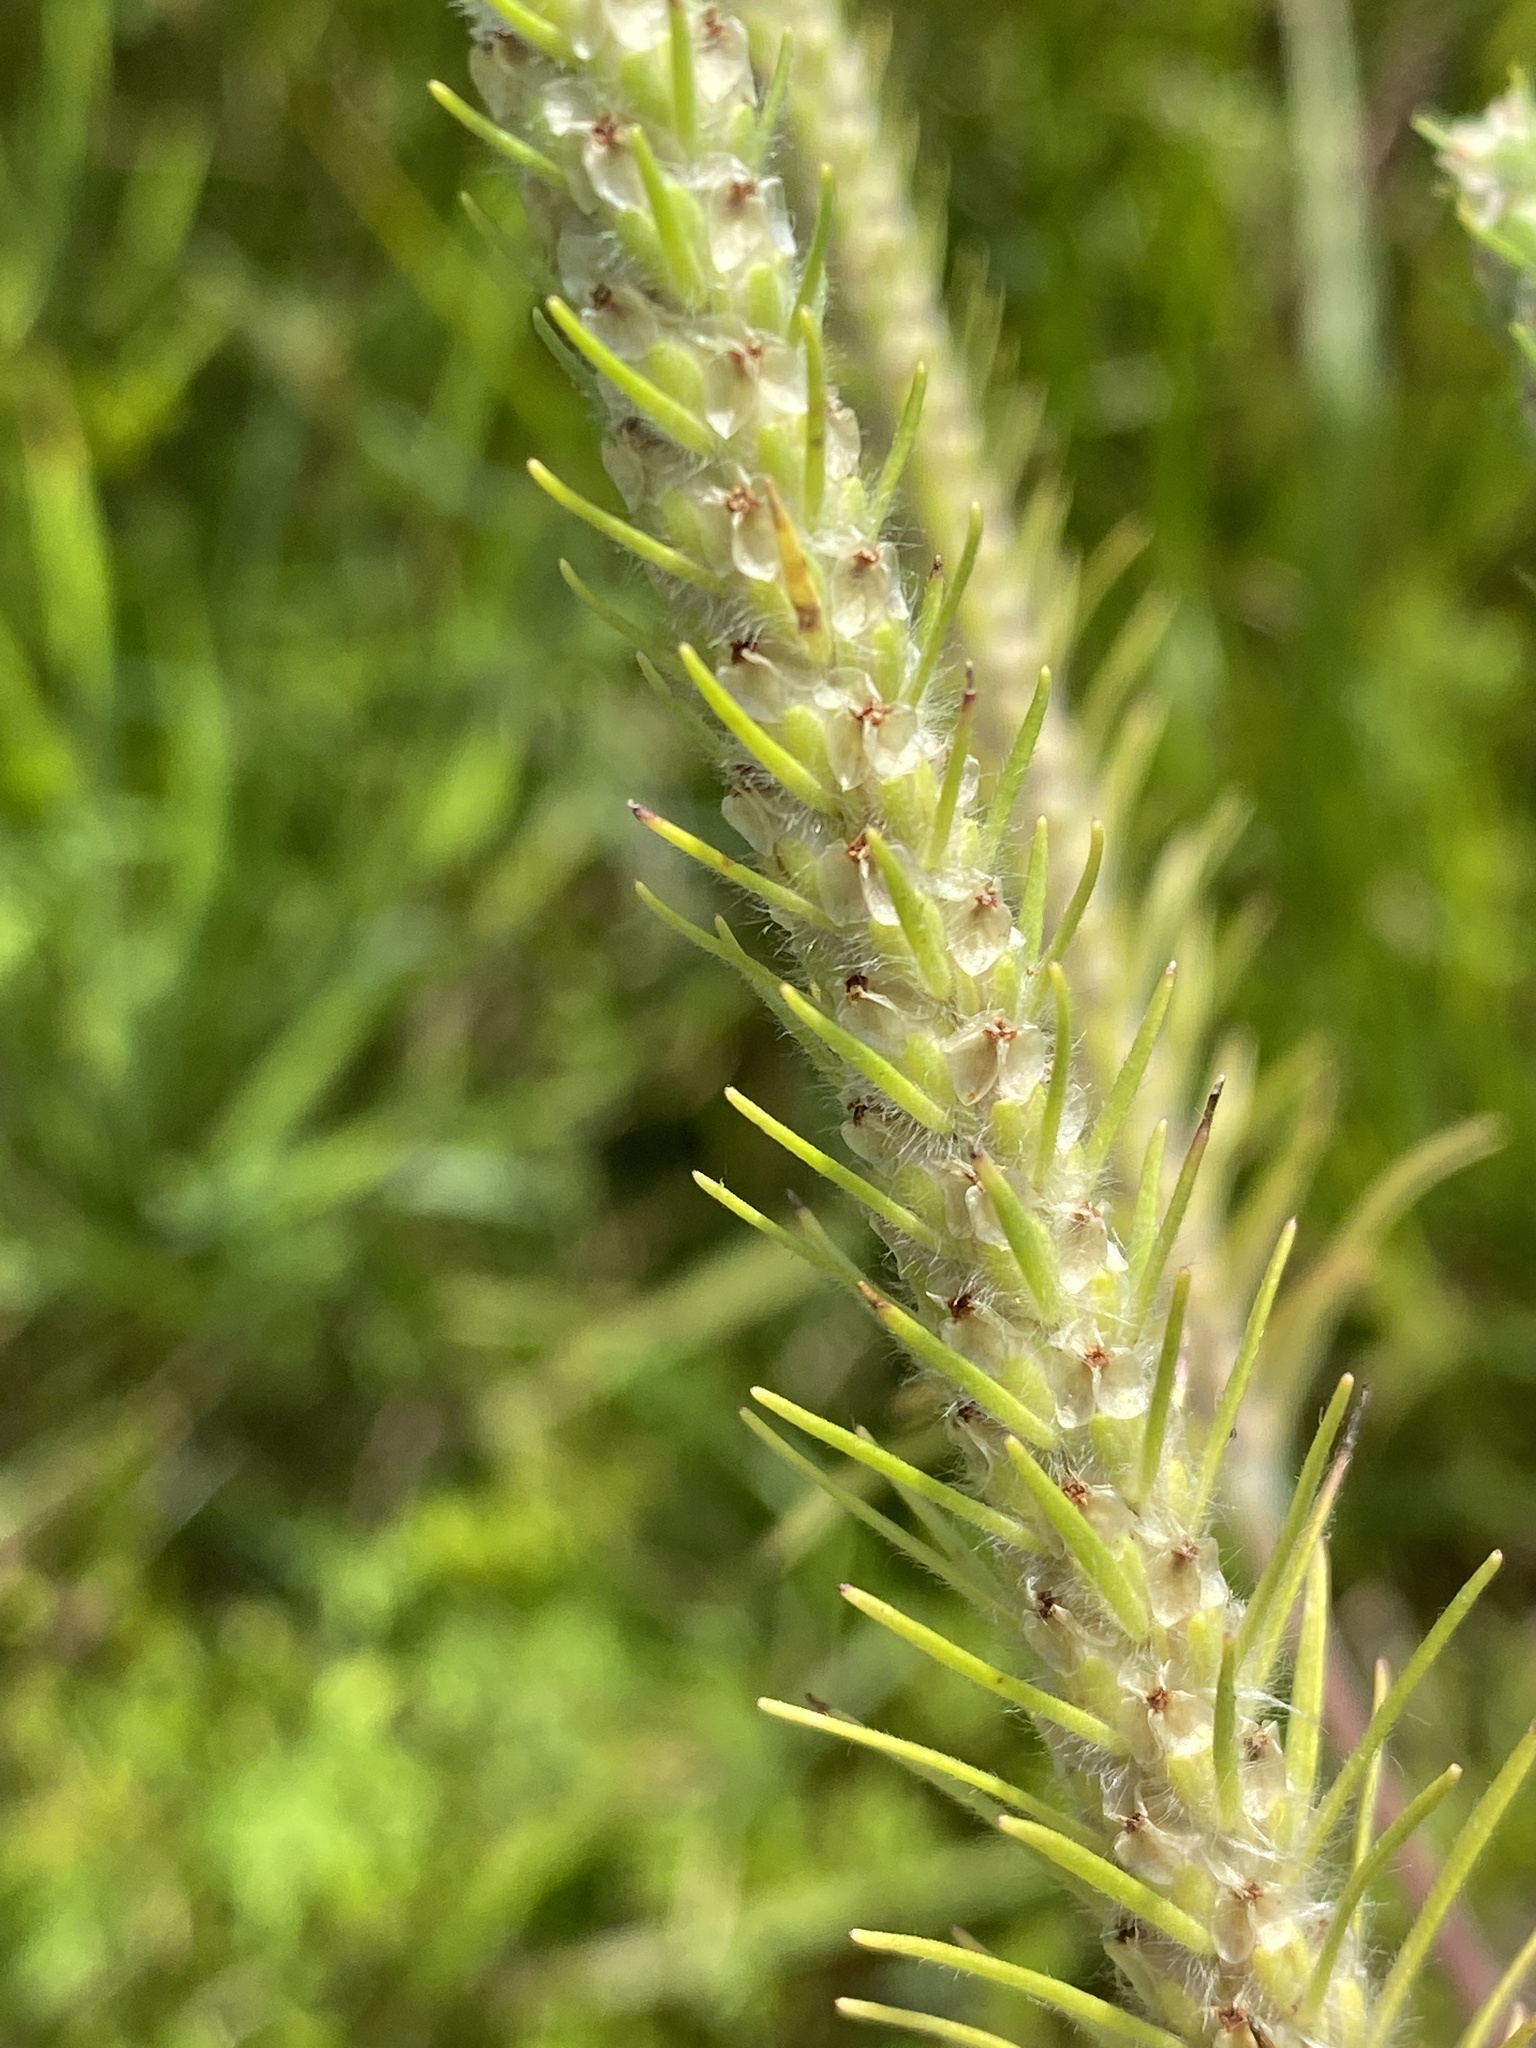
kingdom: Plantae
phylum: Tracheophyta
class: Magnoliopsida
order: Lamiales
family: Plantaginaceae
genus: Plantago
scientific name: Plantago aristata
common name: Bracted plantain
